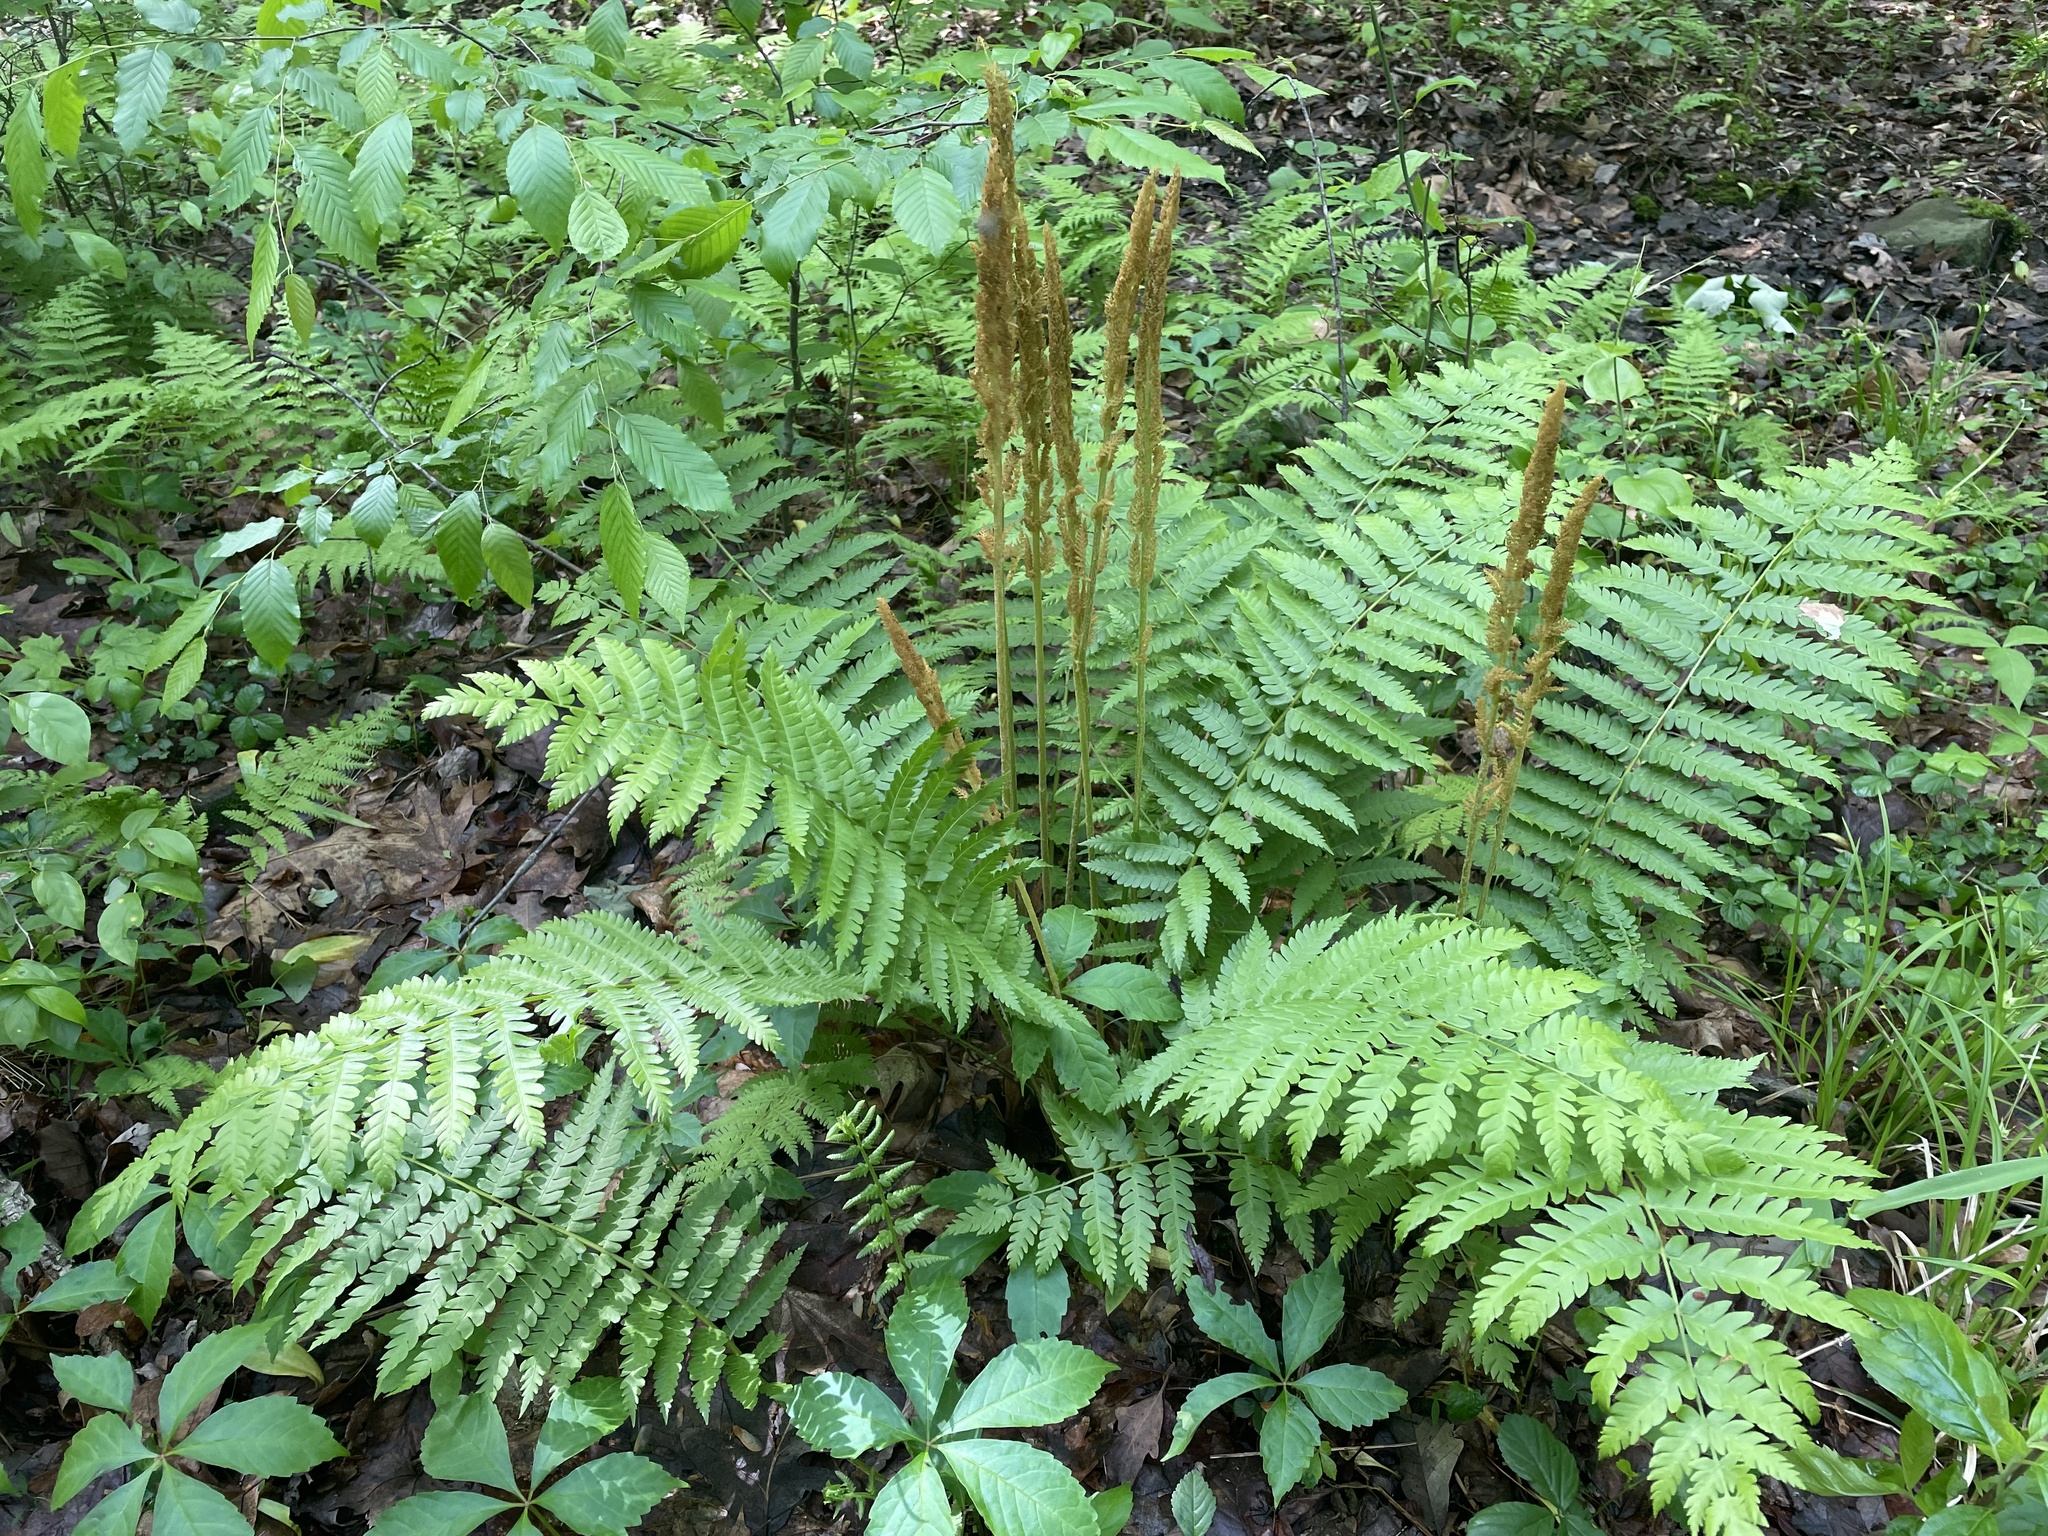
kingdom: Plantae
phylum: Tracheophyta
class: Polypodiopsida
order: Osmundales
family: Osmundaceae
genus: Osmundastrum
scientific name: Osmundastrum cinnamomeum
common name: Cinnamon fern
